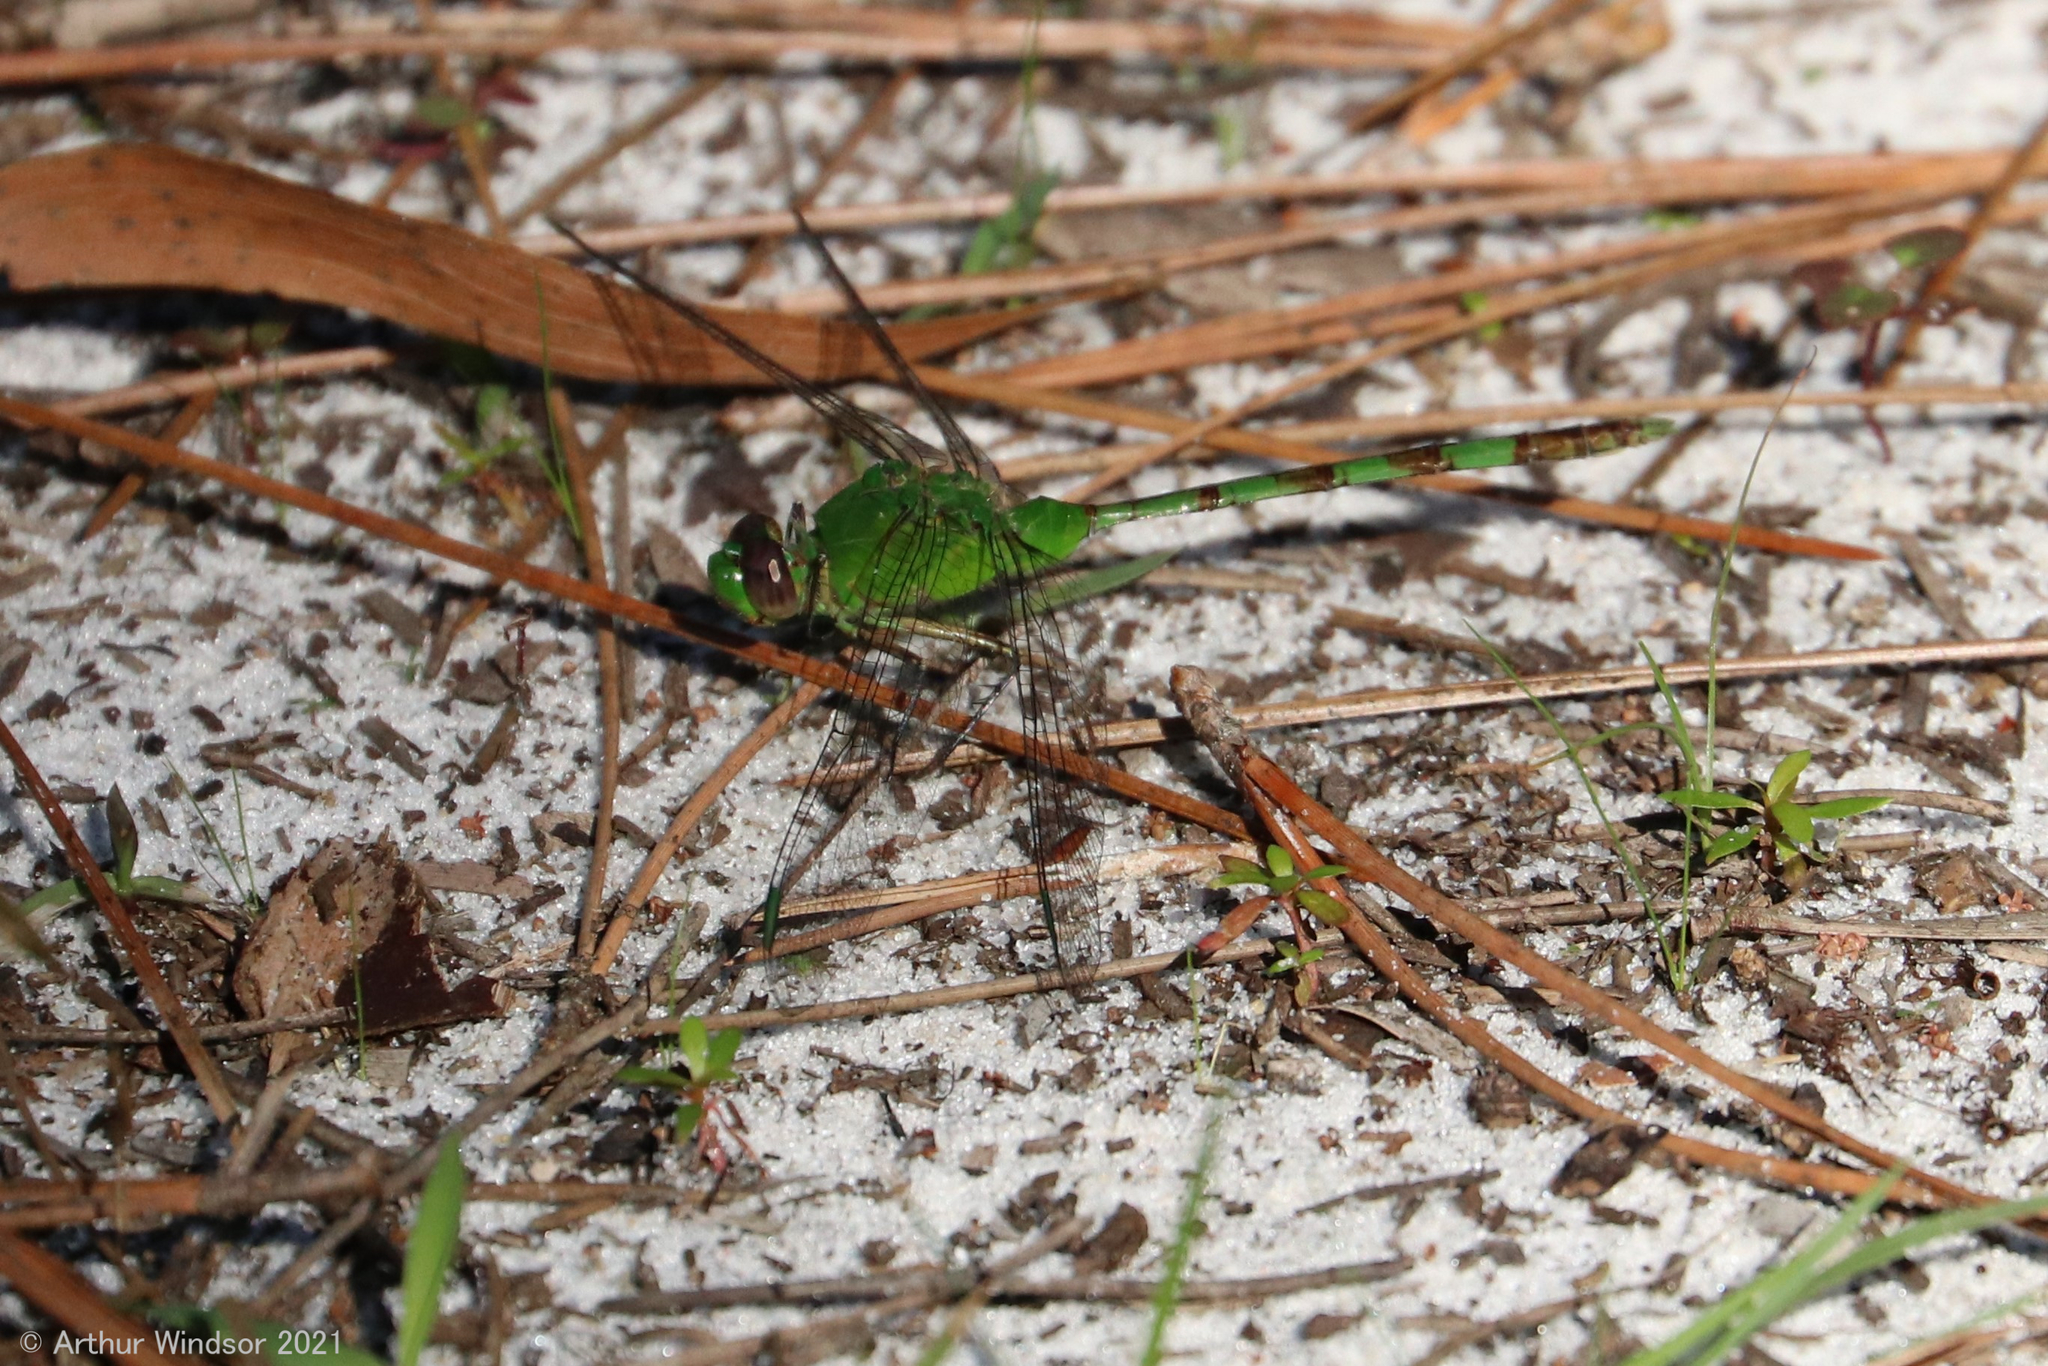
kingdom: Animalia
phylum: Arthropoda
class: Insecta
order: Odonata
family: Libellulidae
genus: Erythemis
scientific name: Erythemis vesiculosa
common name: Great pondhawk
